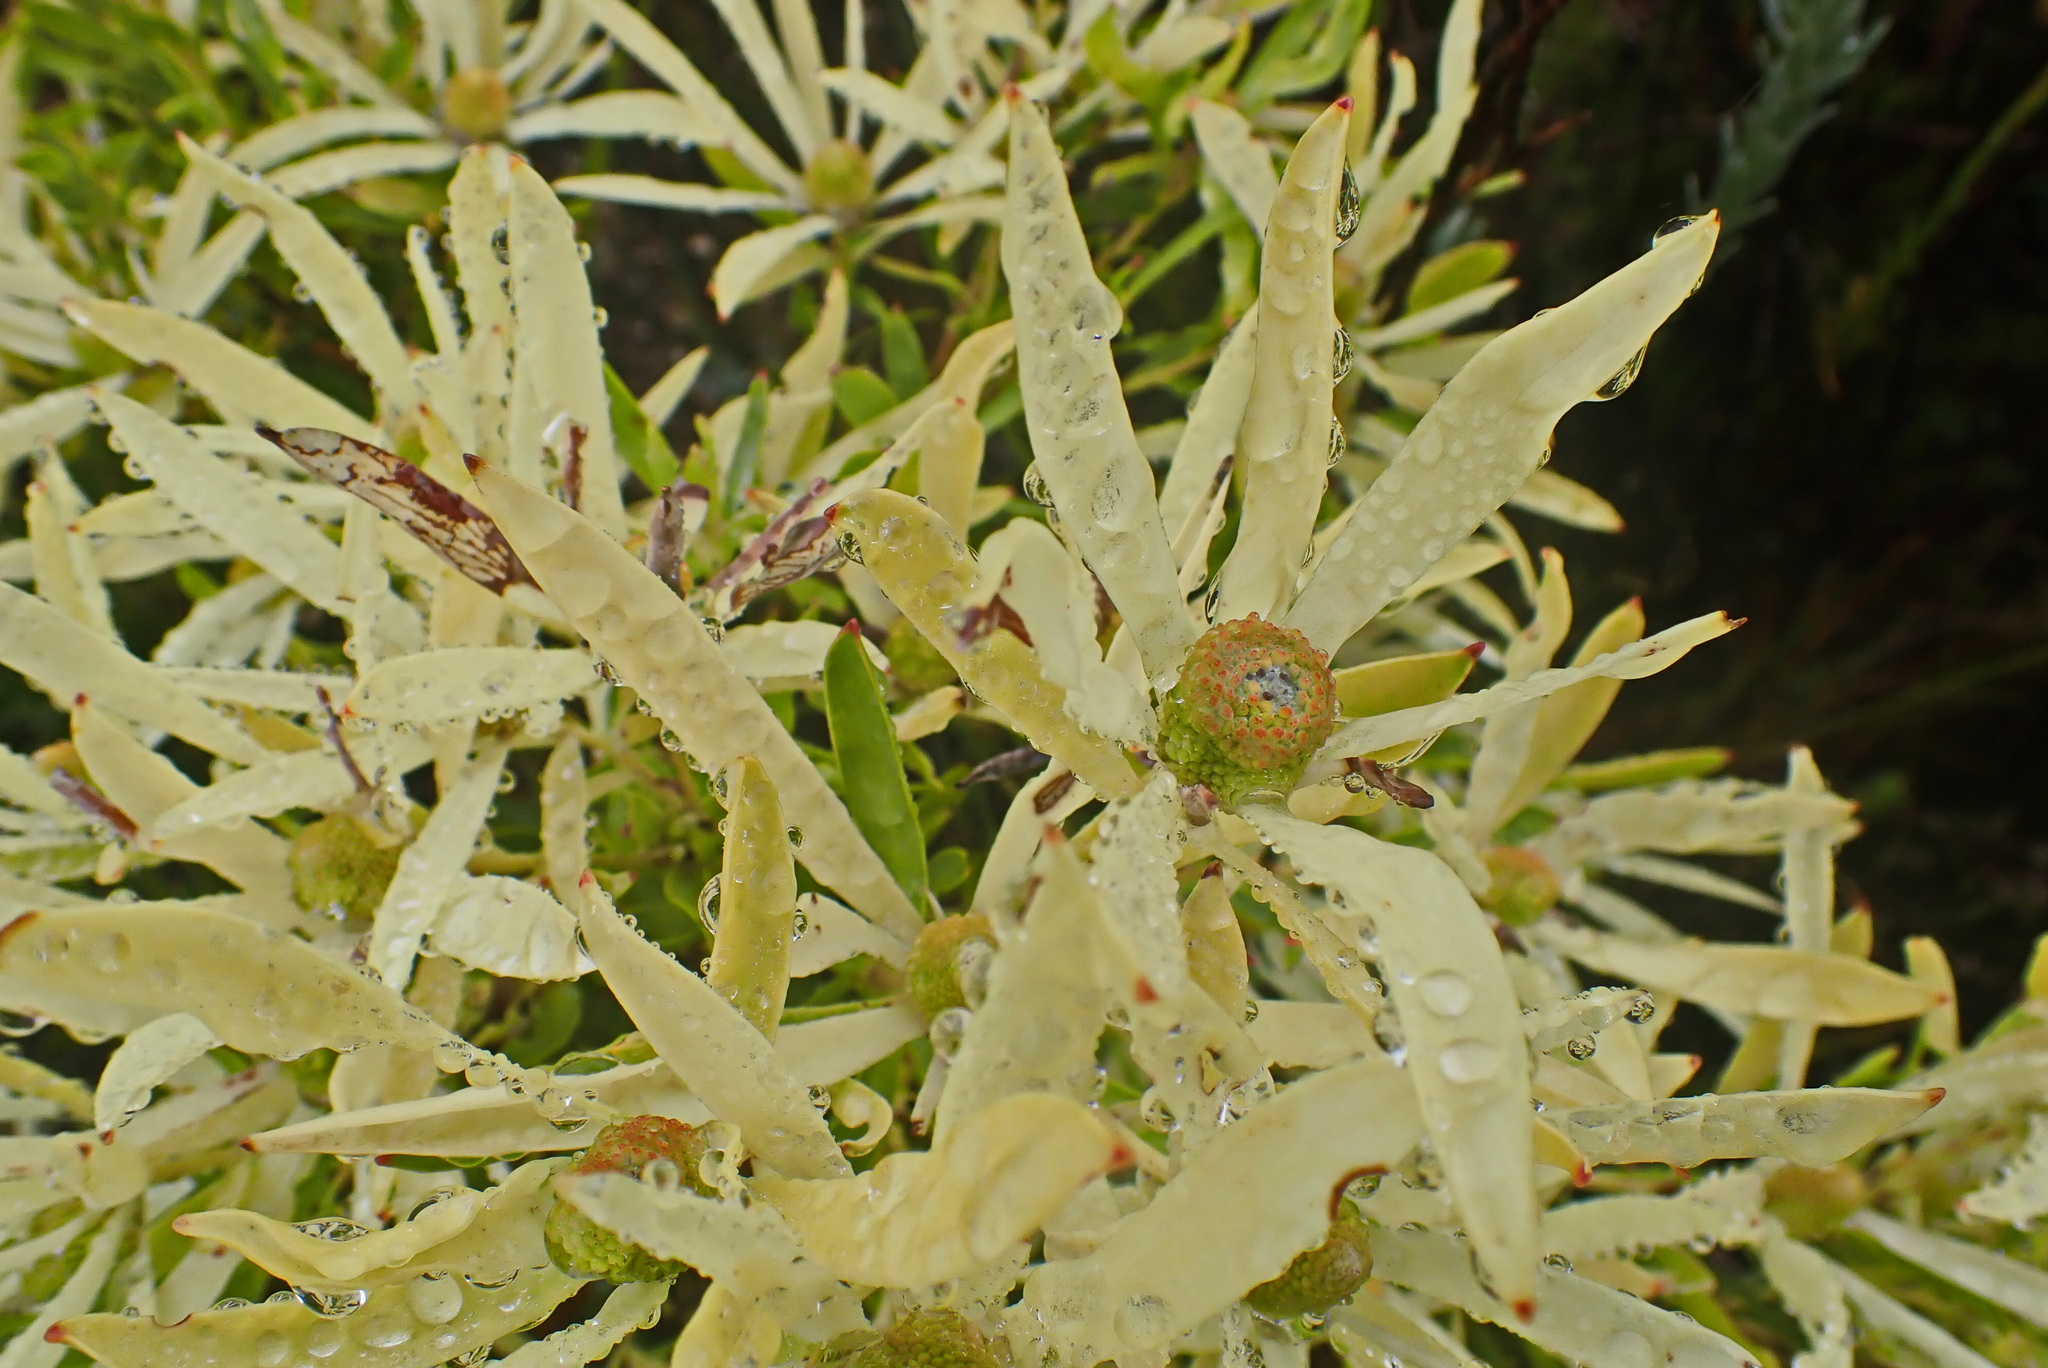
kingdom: Plantae
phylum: Tracheophyta
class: Magnoliopsida
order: Proteales
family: Proteaceae
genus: Leucadendron
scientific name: Leucadendron salignum
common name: Common sunshine conebush
